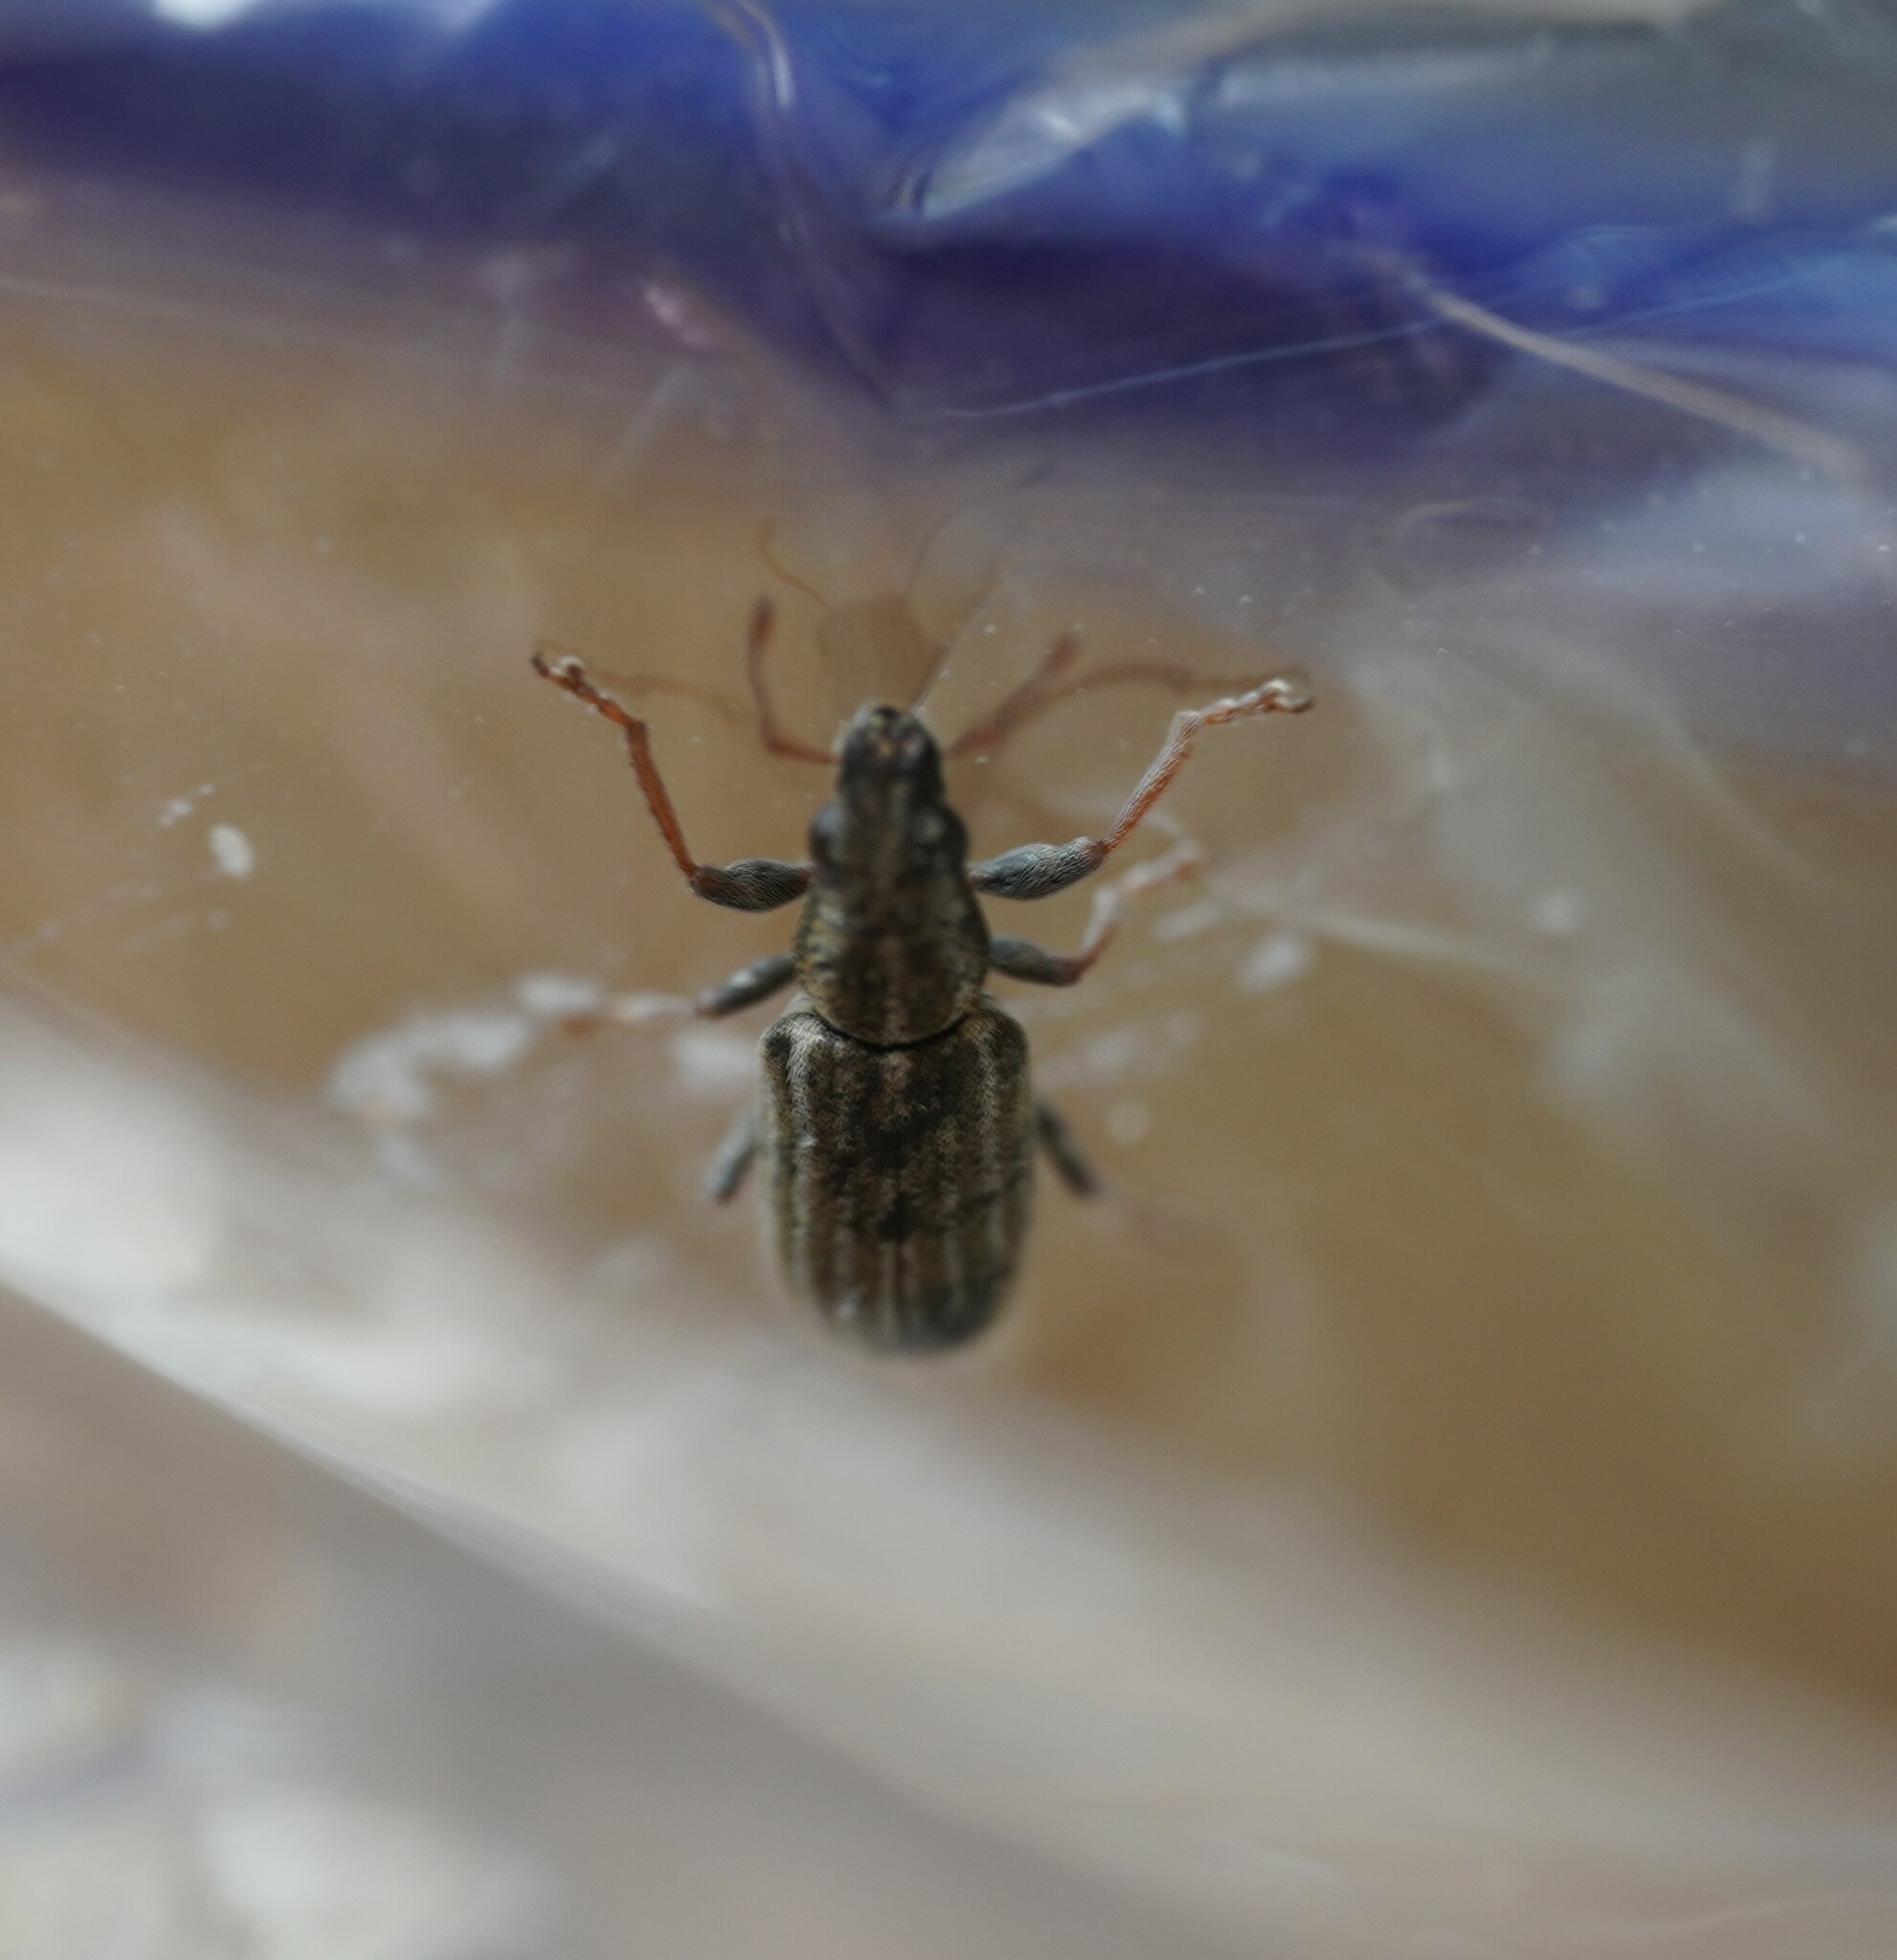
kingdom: Animalia
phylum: Arthropoda
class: Insecta
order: Coleoptera
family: Curculionidae
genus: Sitona
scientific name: Sitona lineatus
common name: Weevil
